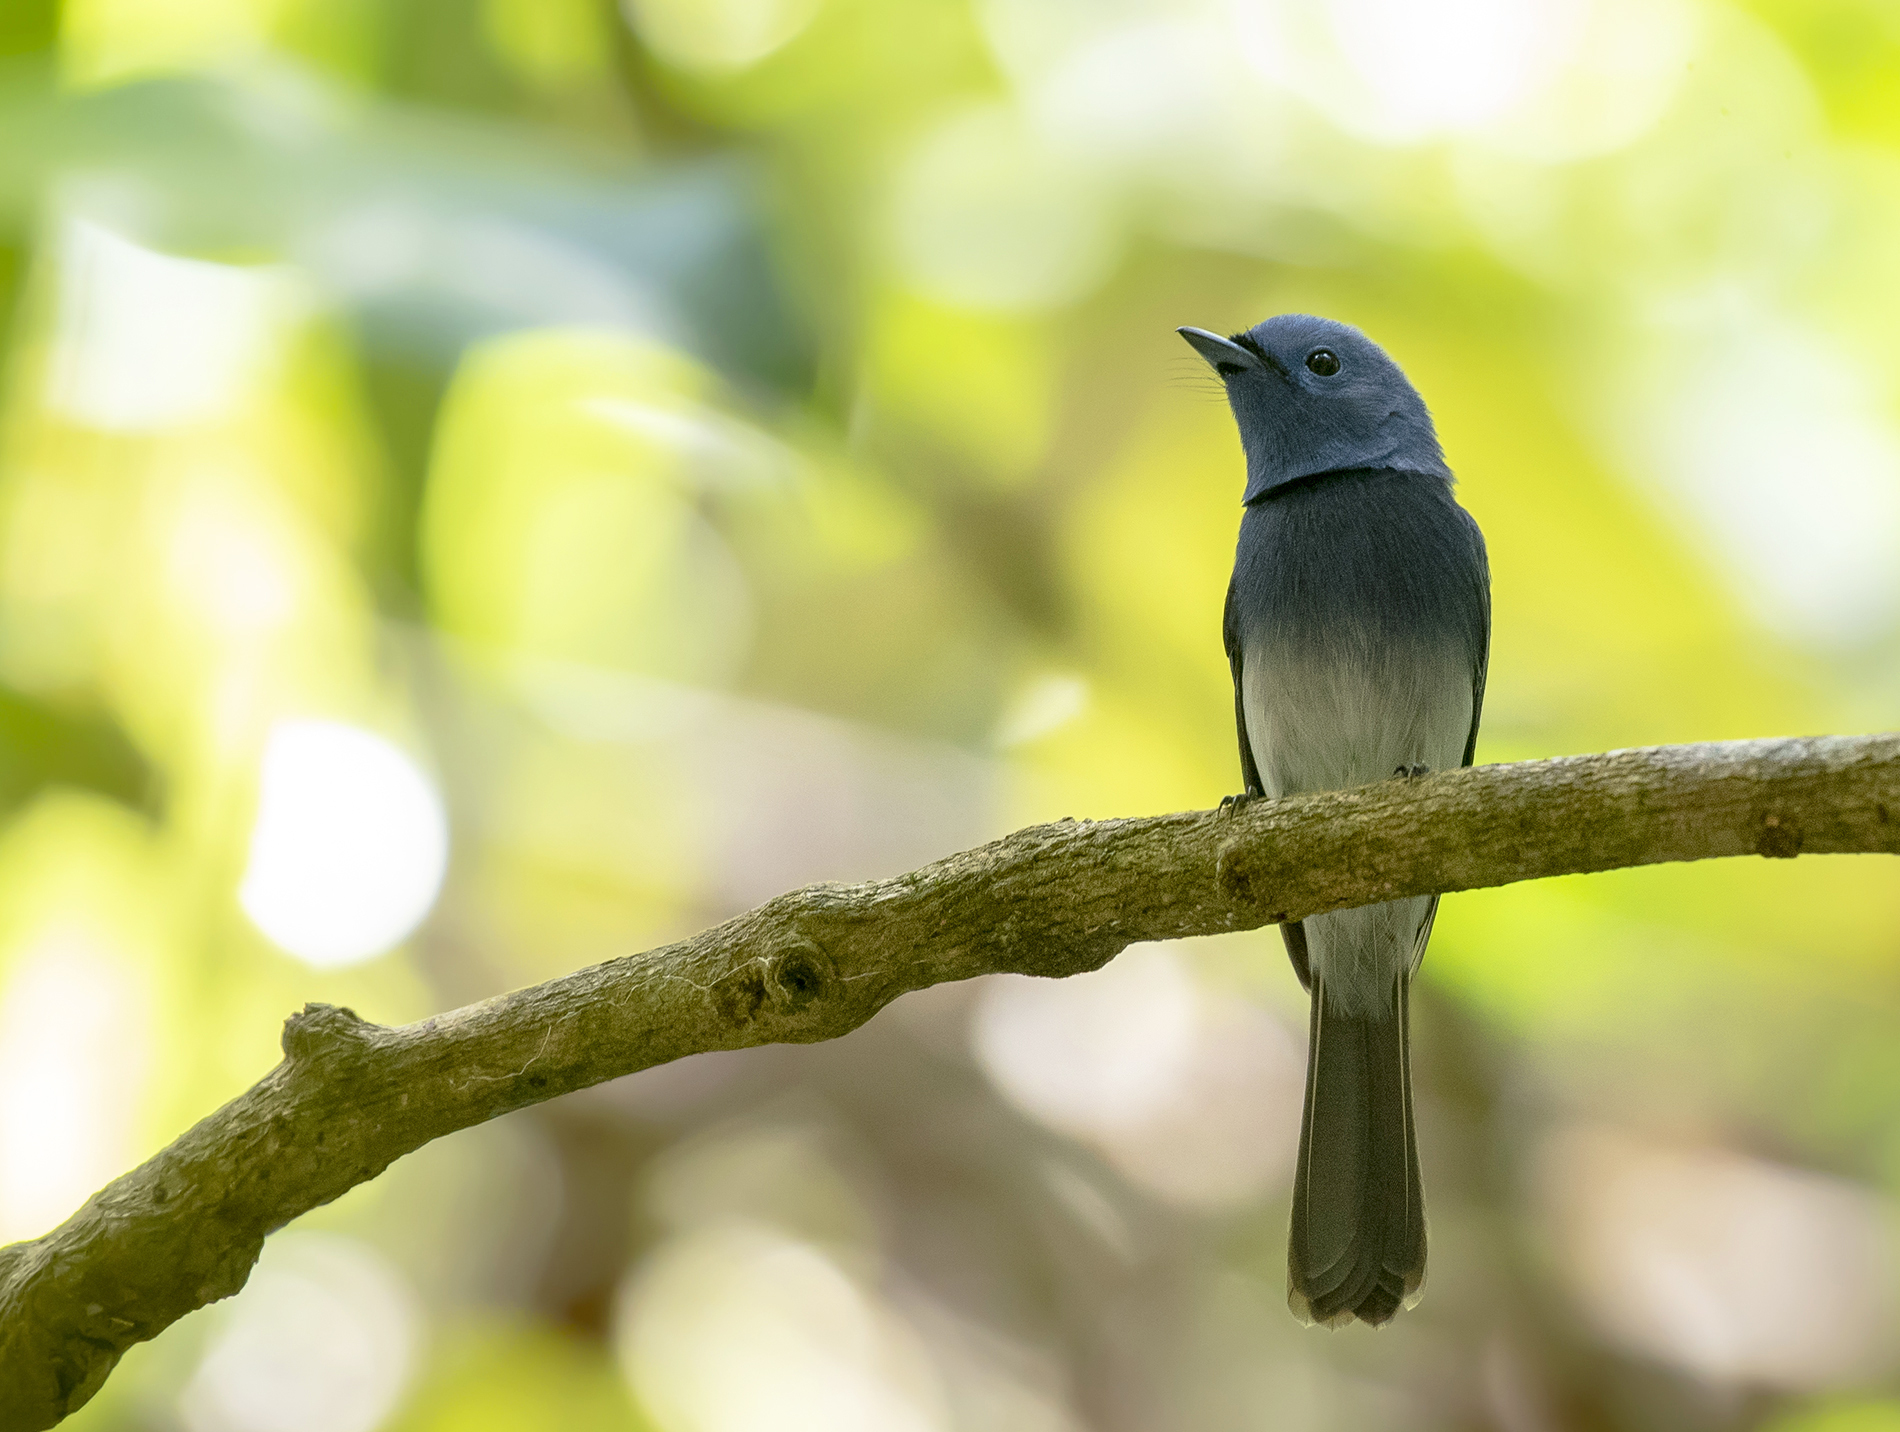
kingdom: Animalia
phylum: Chordata
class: Aves
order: Passeriformes
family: Monarchidae
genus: Hypothymis
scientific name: Hypothymis azurea
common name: Black-naped monarch
